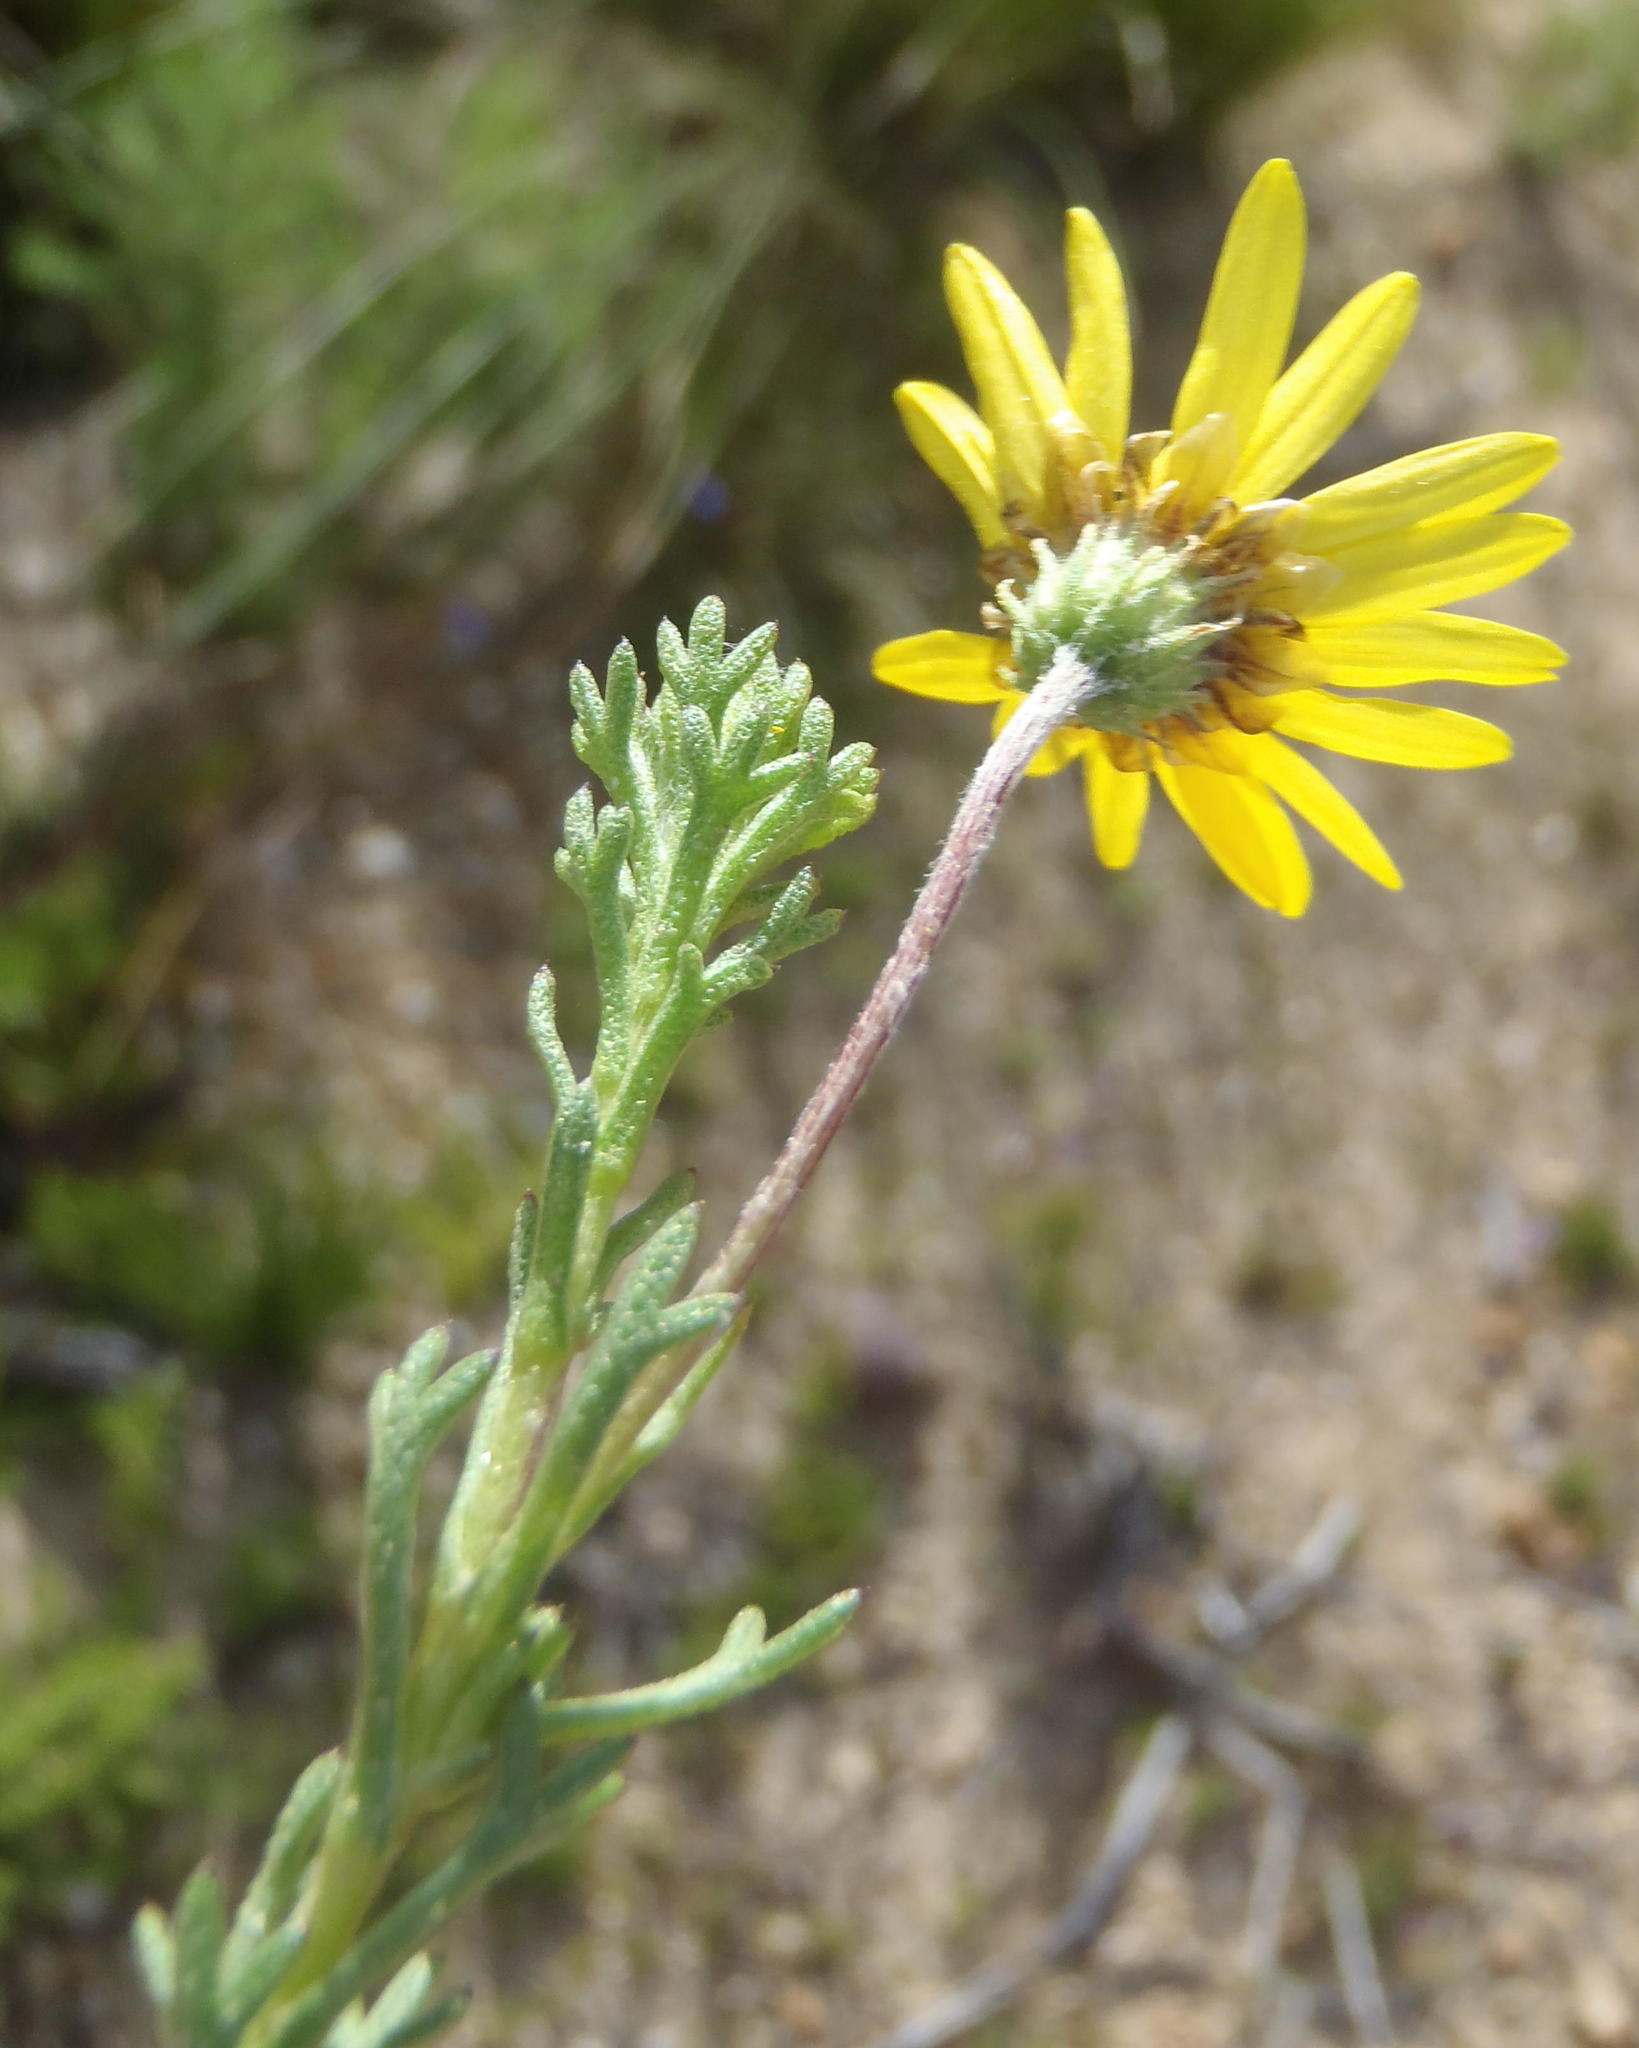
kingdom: Plantae
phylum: Tracheophyta
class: Magnoliopsida
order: Asterales
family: Asteraceae
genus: Ursinia
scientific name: Ursinia trifida
